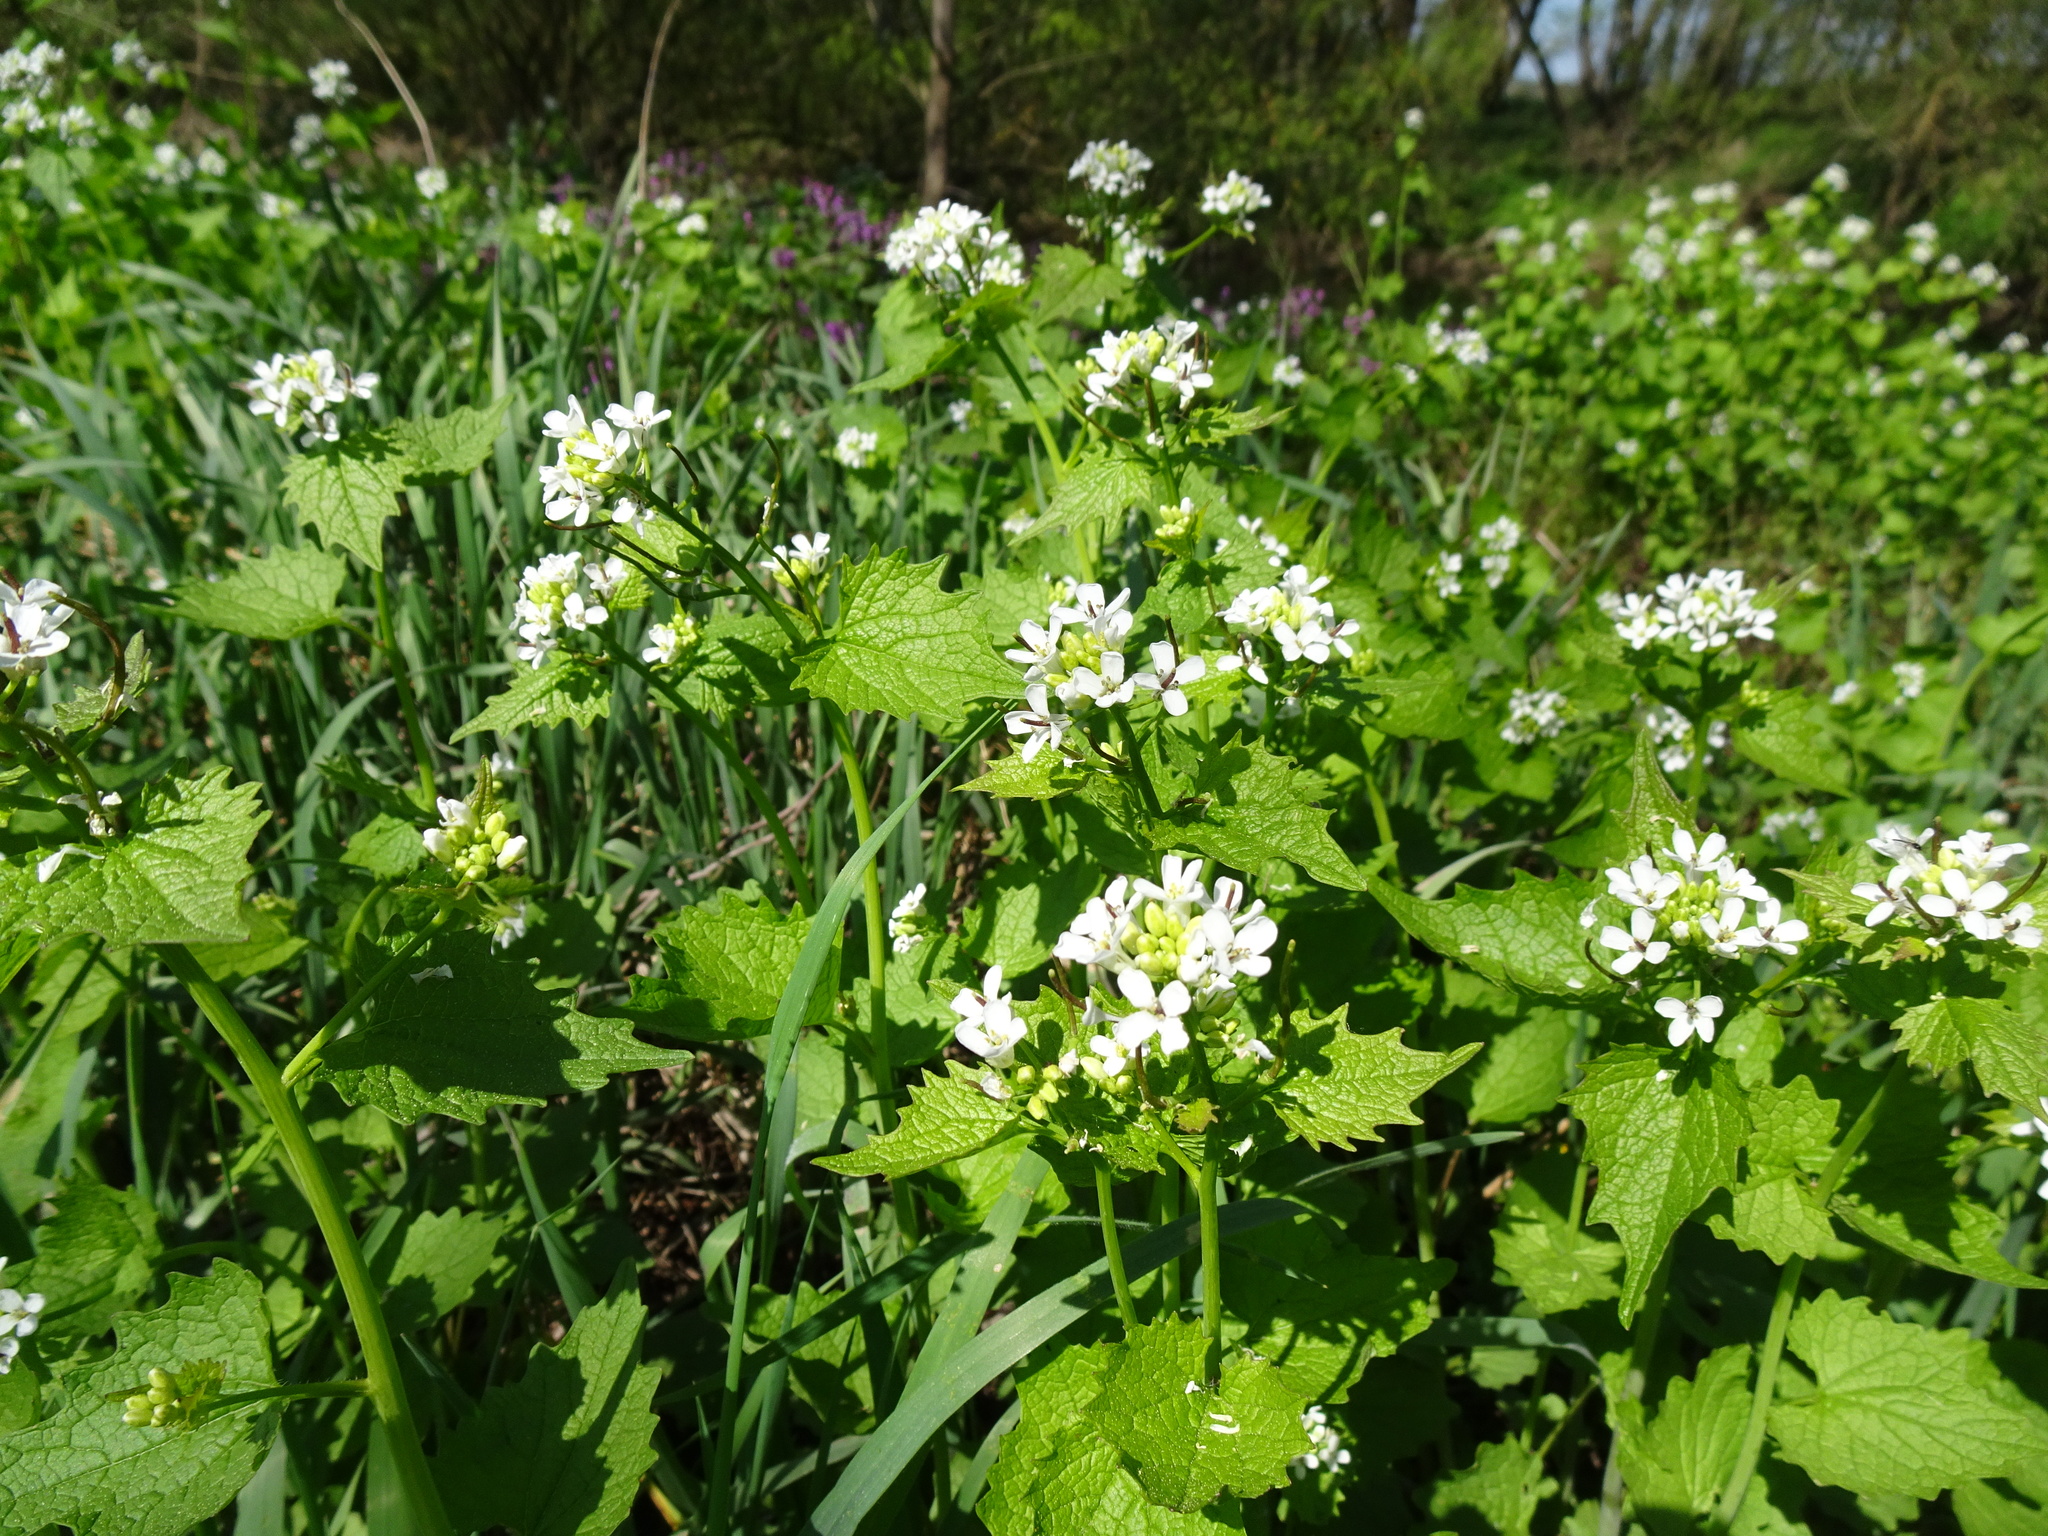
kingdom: Plantae
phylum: Tracheophyta
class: Magnoliopsida
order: Brassicales
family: Brassicaceae
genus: Alliaria
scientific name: Alliaria petiolata
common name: Garlic mustard
